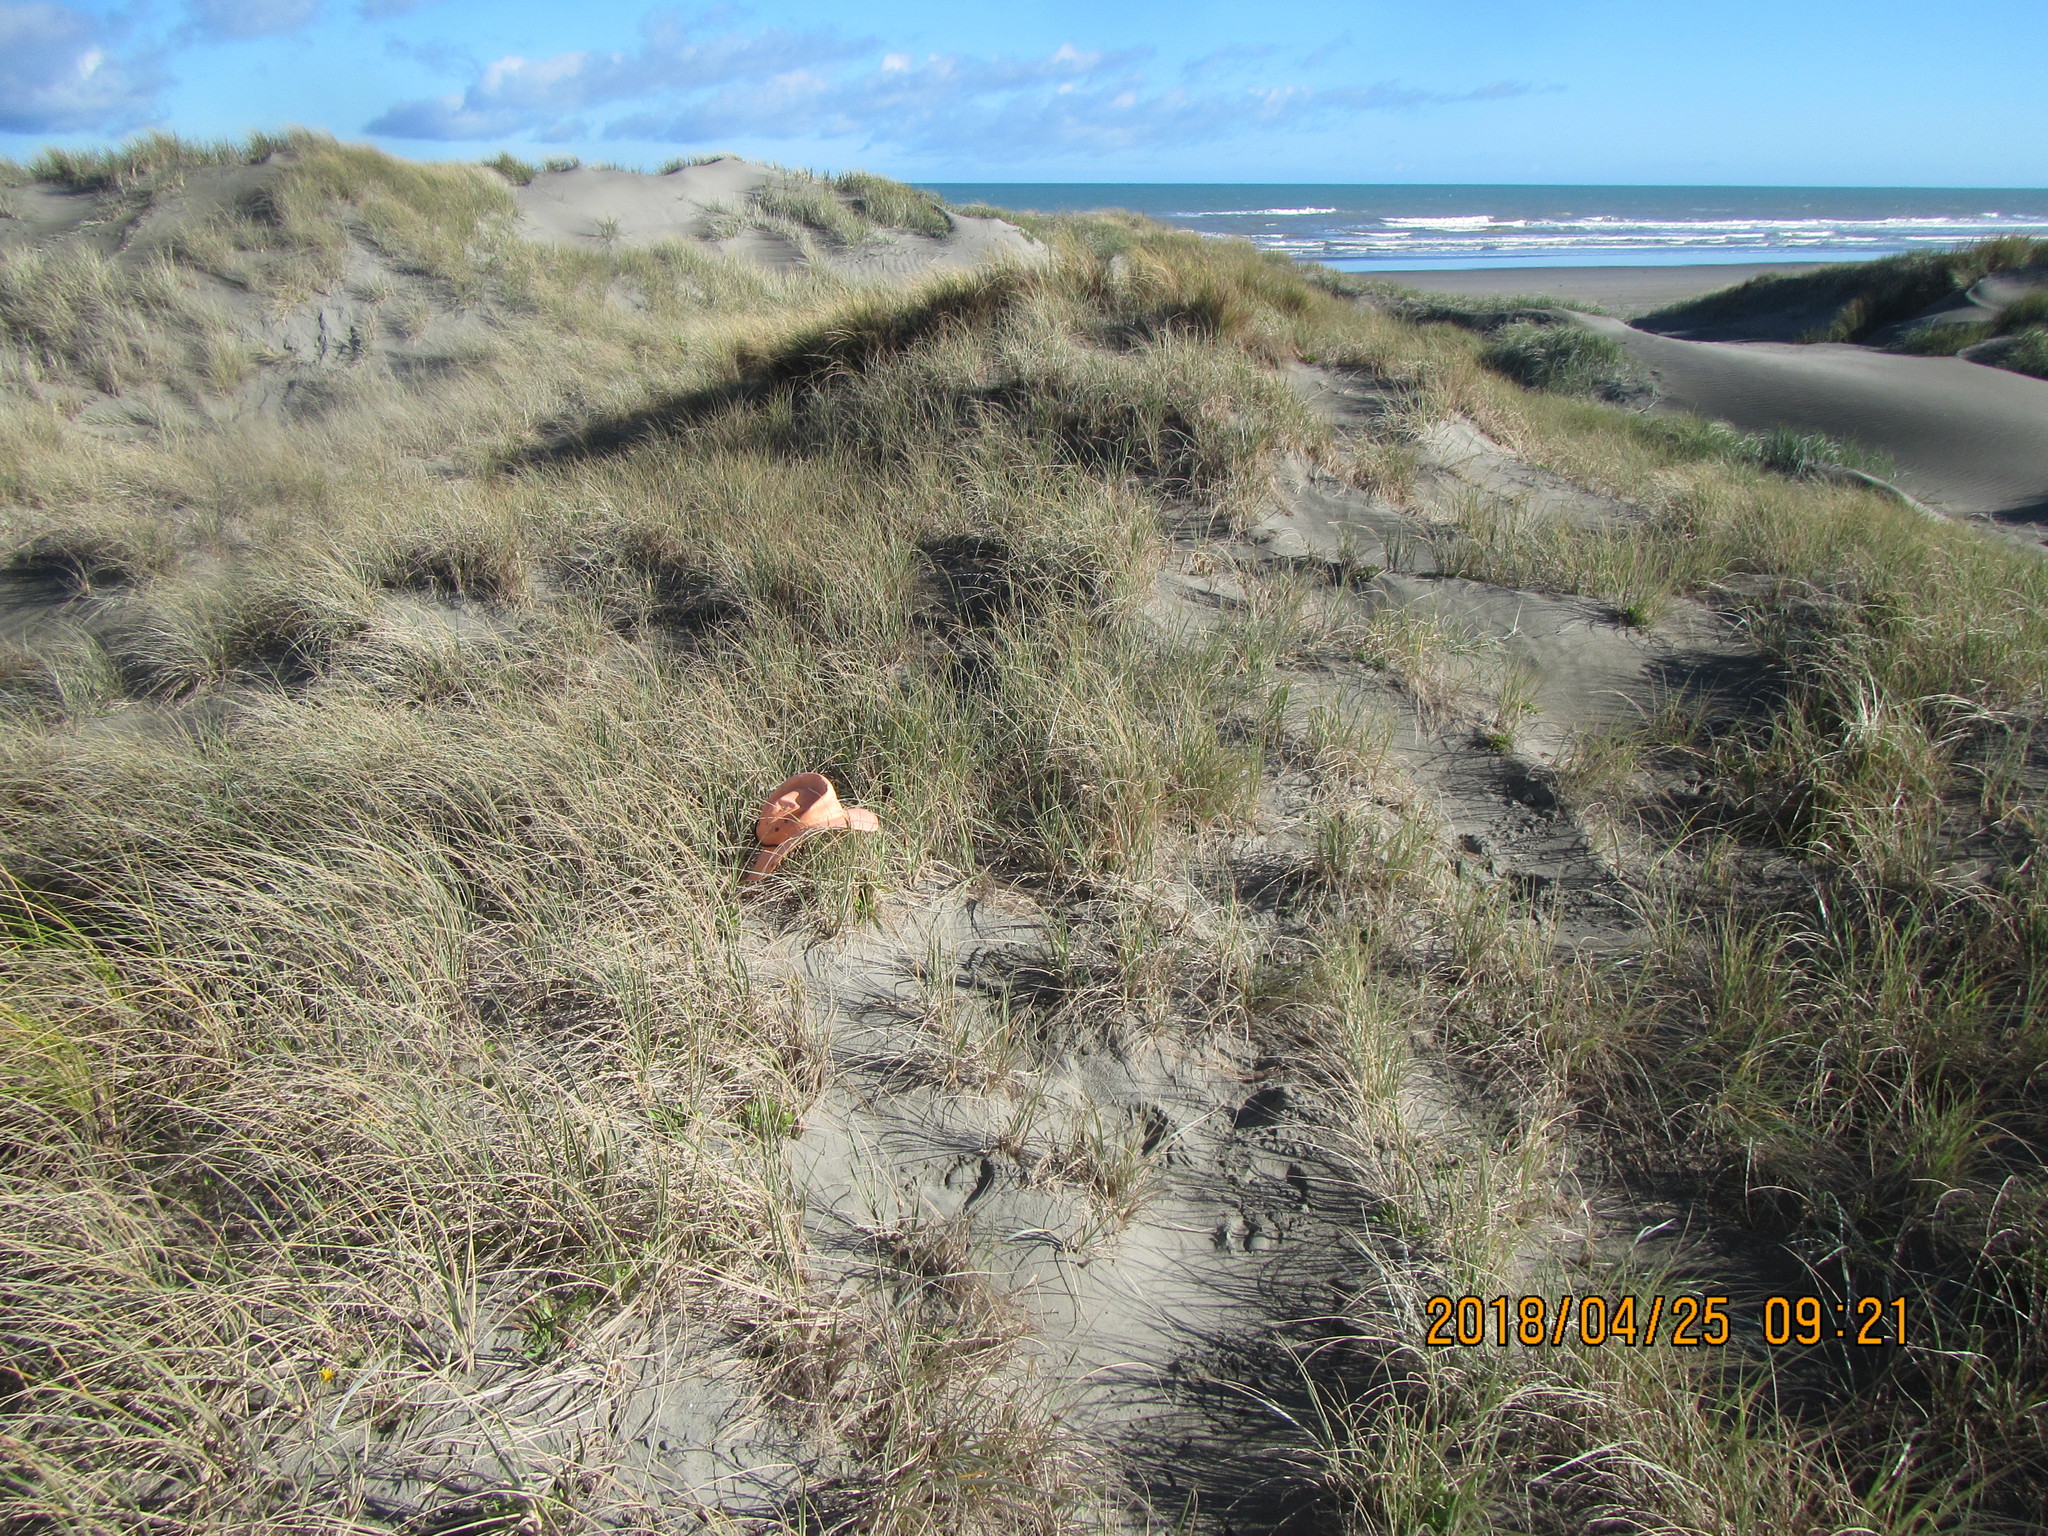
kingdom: Animalia
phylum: Arthropoda
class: Arachnida
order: Araneae
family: Oxyopidae
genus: Oxyopes
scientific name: Oxyopes gracilipes
